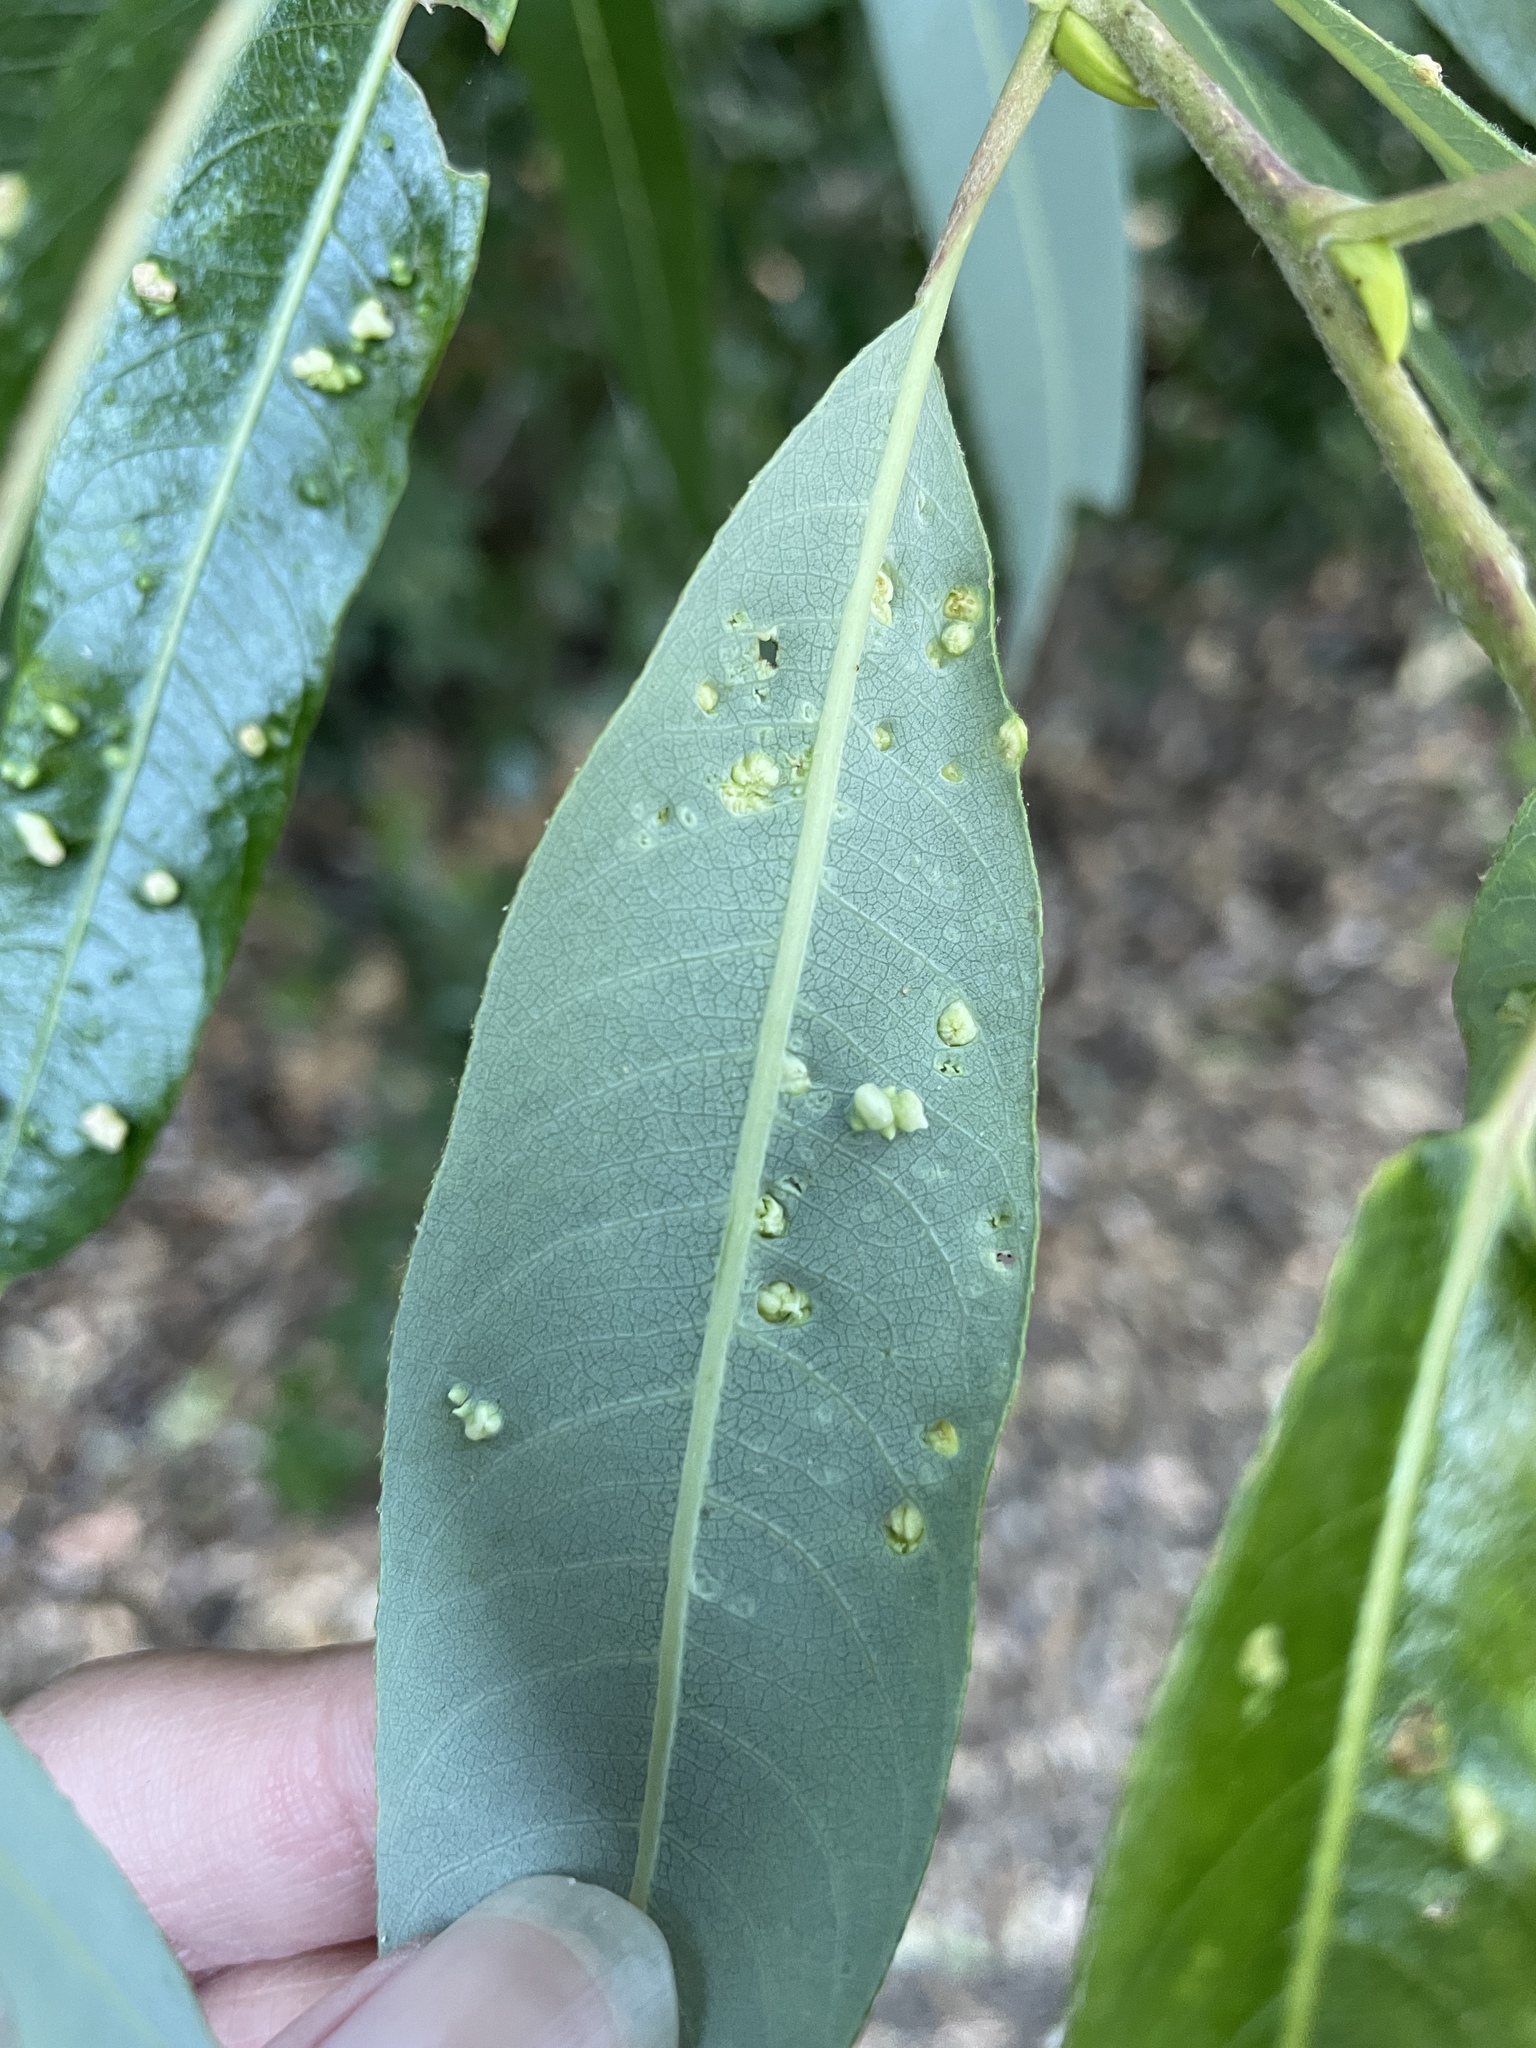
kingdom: Animalia
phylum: Arthropoda
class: Arachnida
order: Trombidiformes
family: Eriophyidae
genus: Aculus
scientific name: Aculus tetanothrix
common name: Willow bead gall mite
